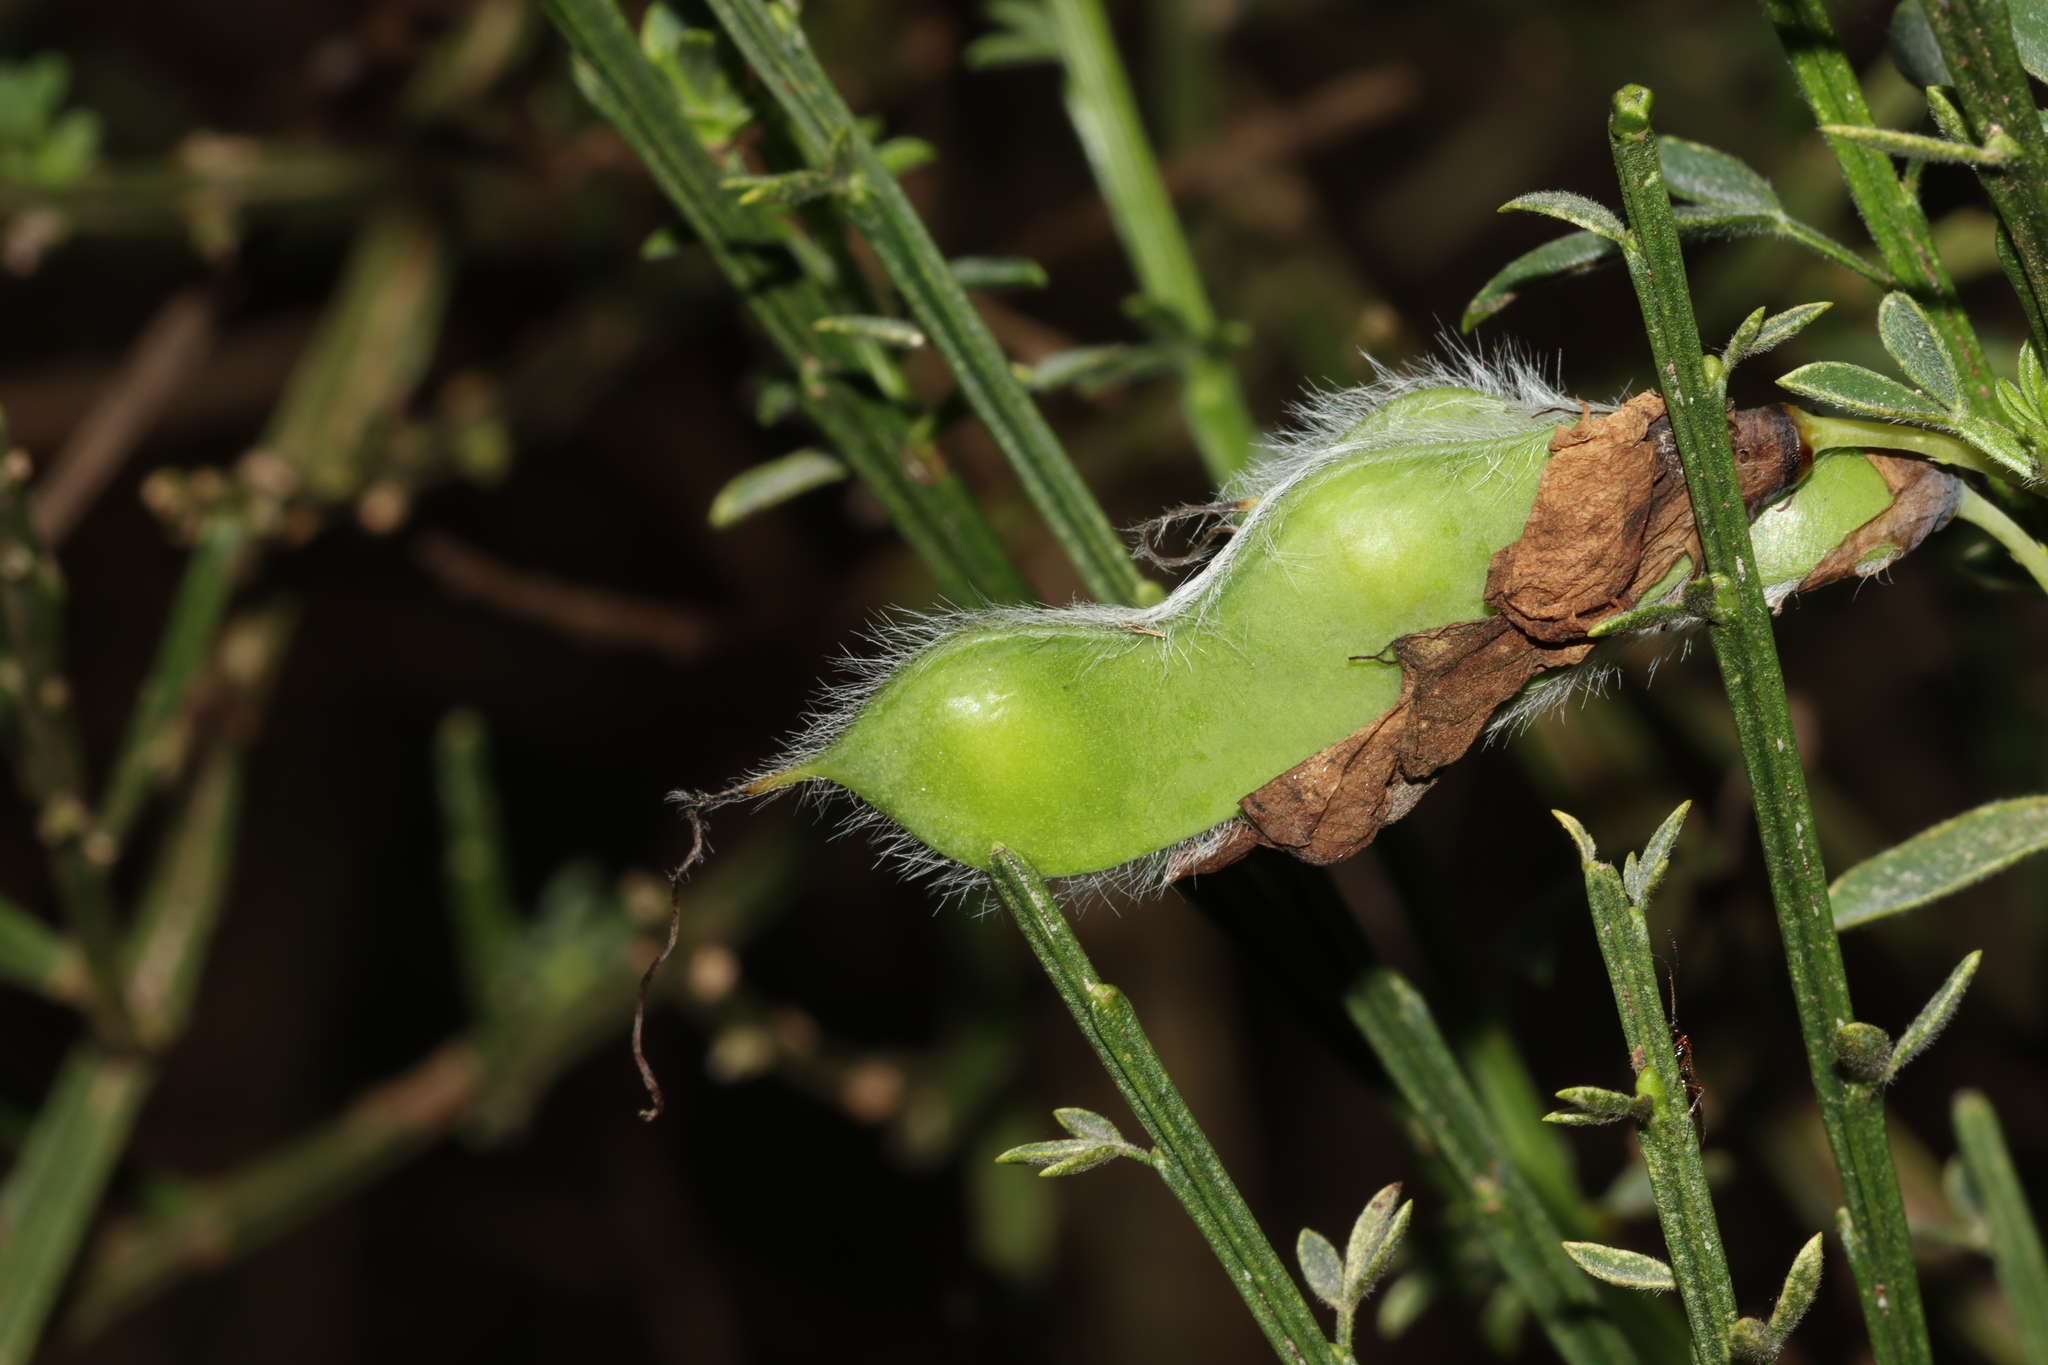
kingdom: Plantae
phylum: Tracheophyta
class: Magnoliopsida
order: Fabales
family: Fabaceae
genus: Cytisus
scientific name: Cytisus scoparius
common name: Scotch broom
